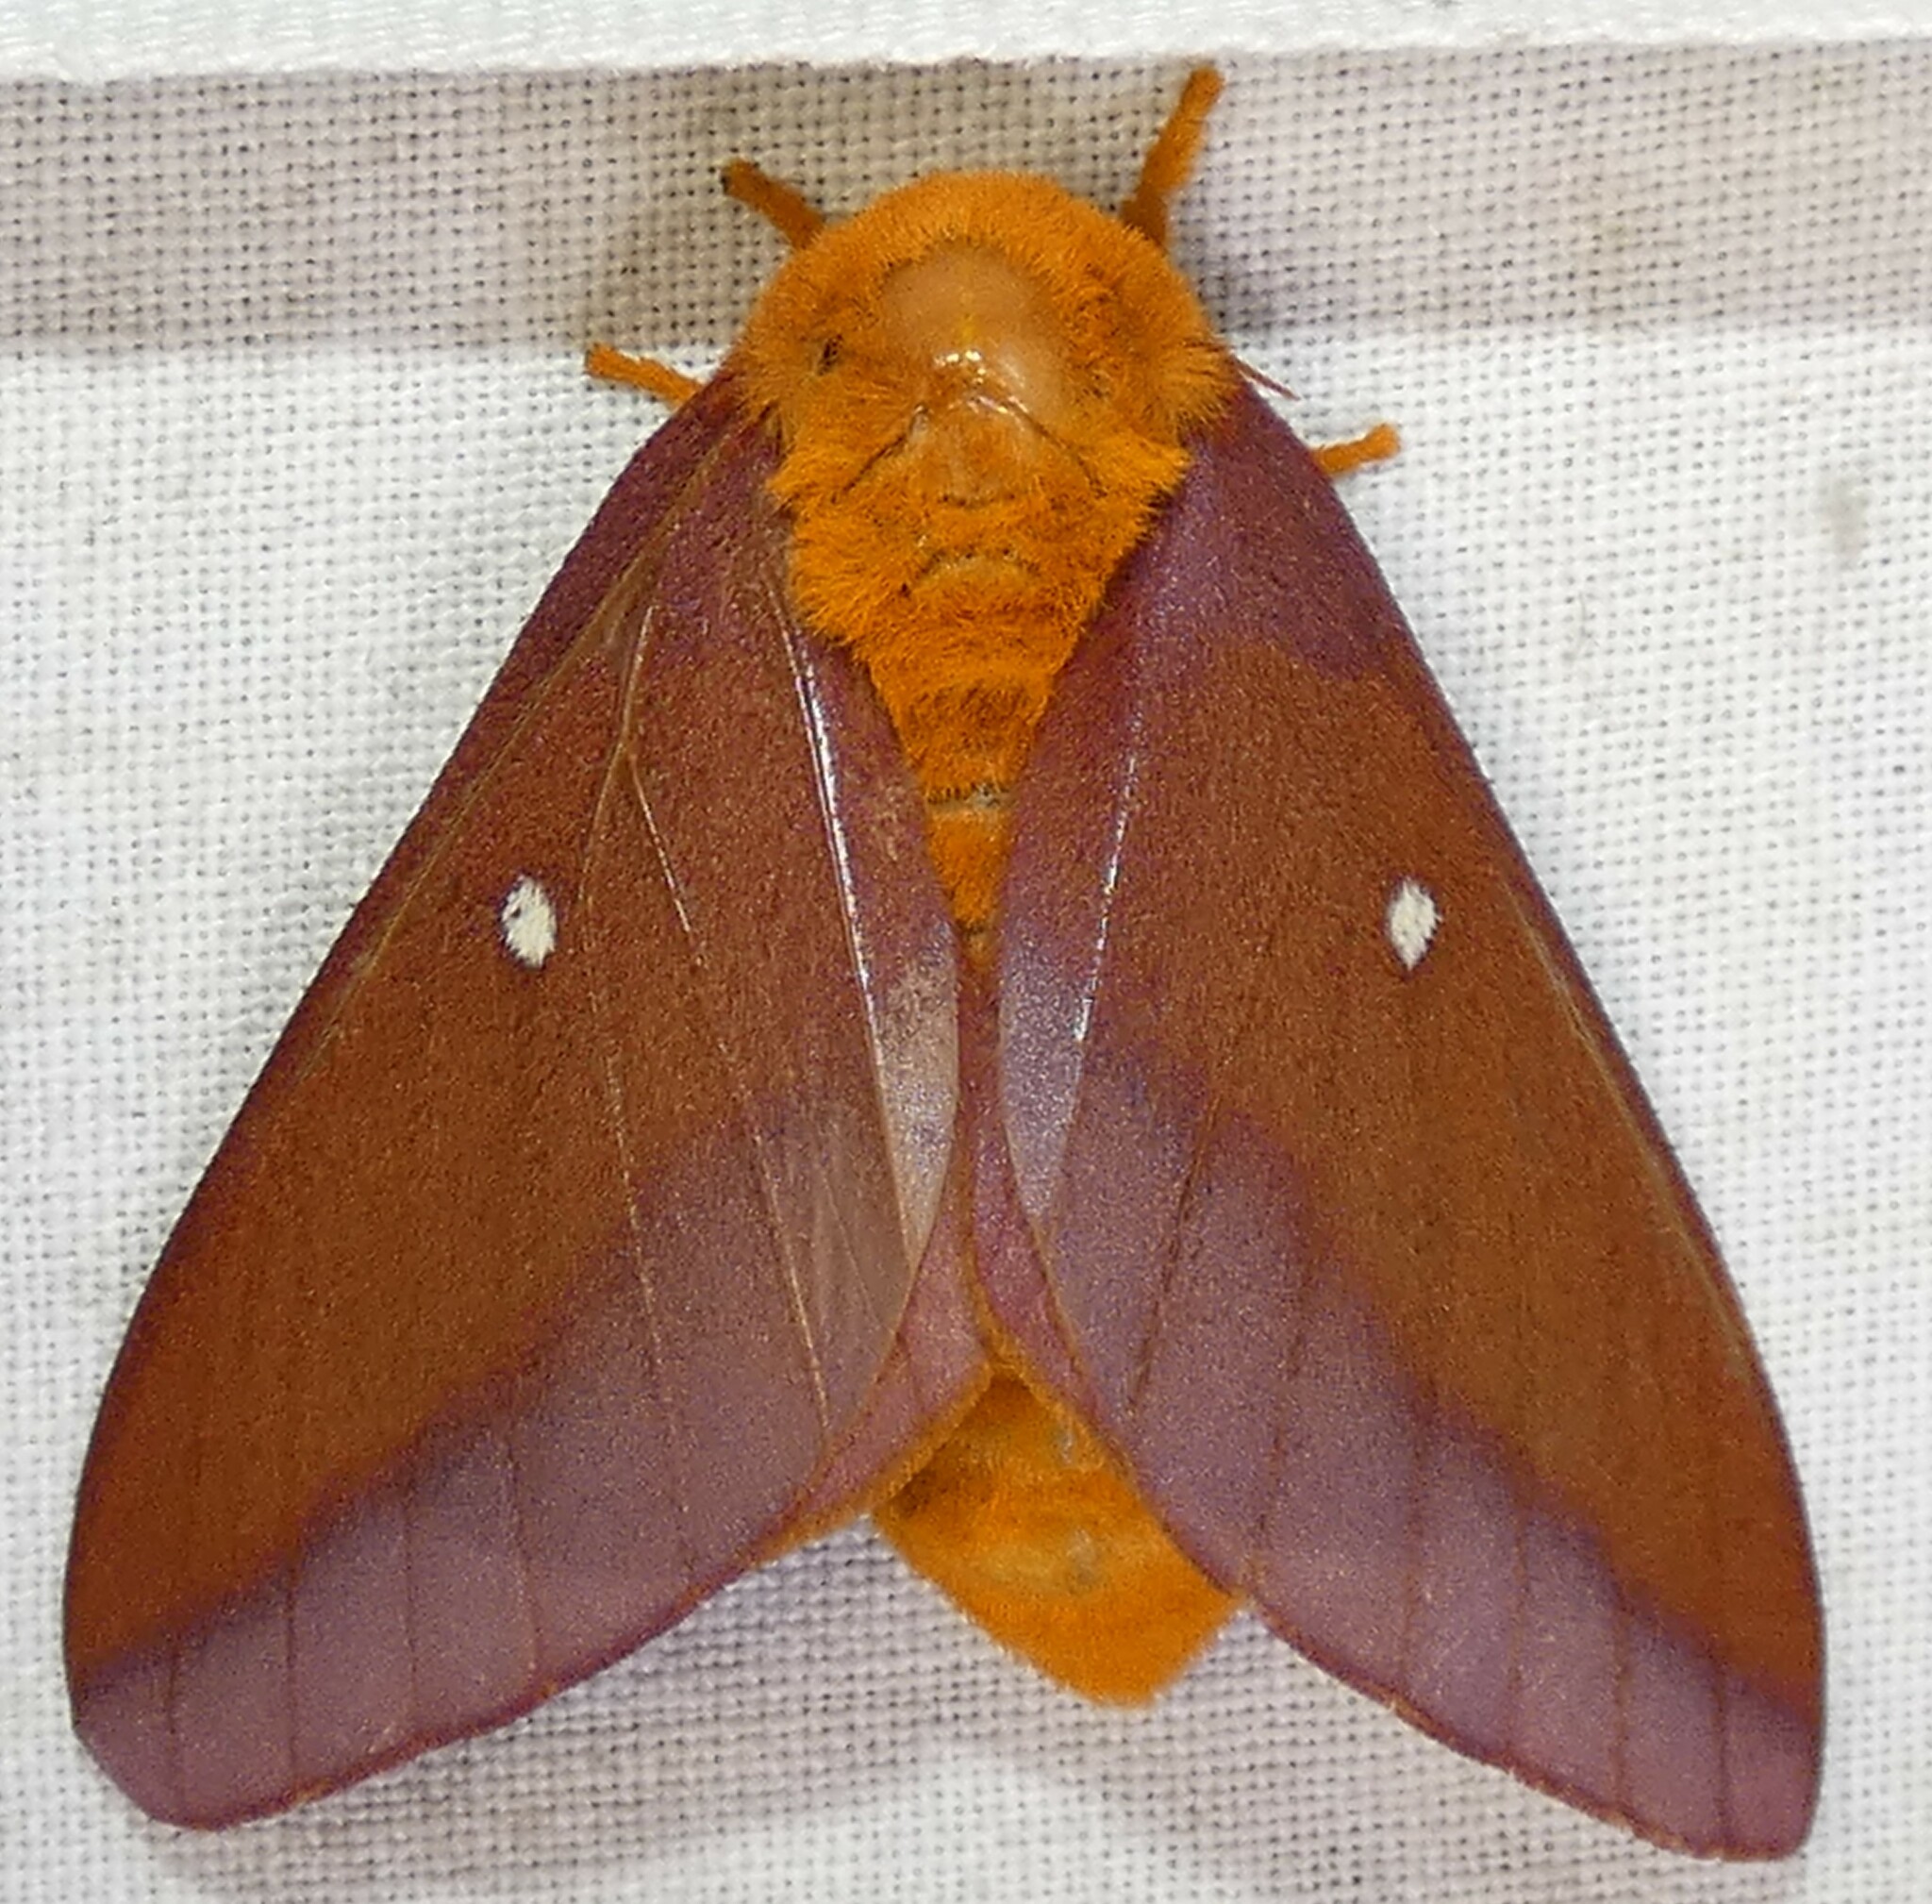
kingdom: Animalia
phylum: Arthropoda
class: Insecta
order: Lepidoptera
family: Saturniidae
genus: Anisota
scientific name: Anisota virginiensis
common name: Pink striped oakworm moth
